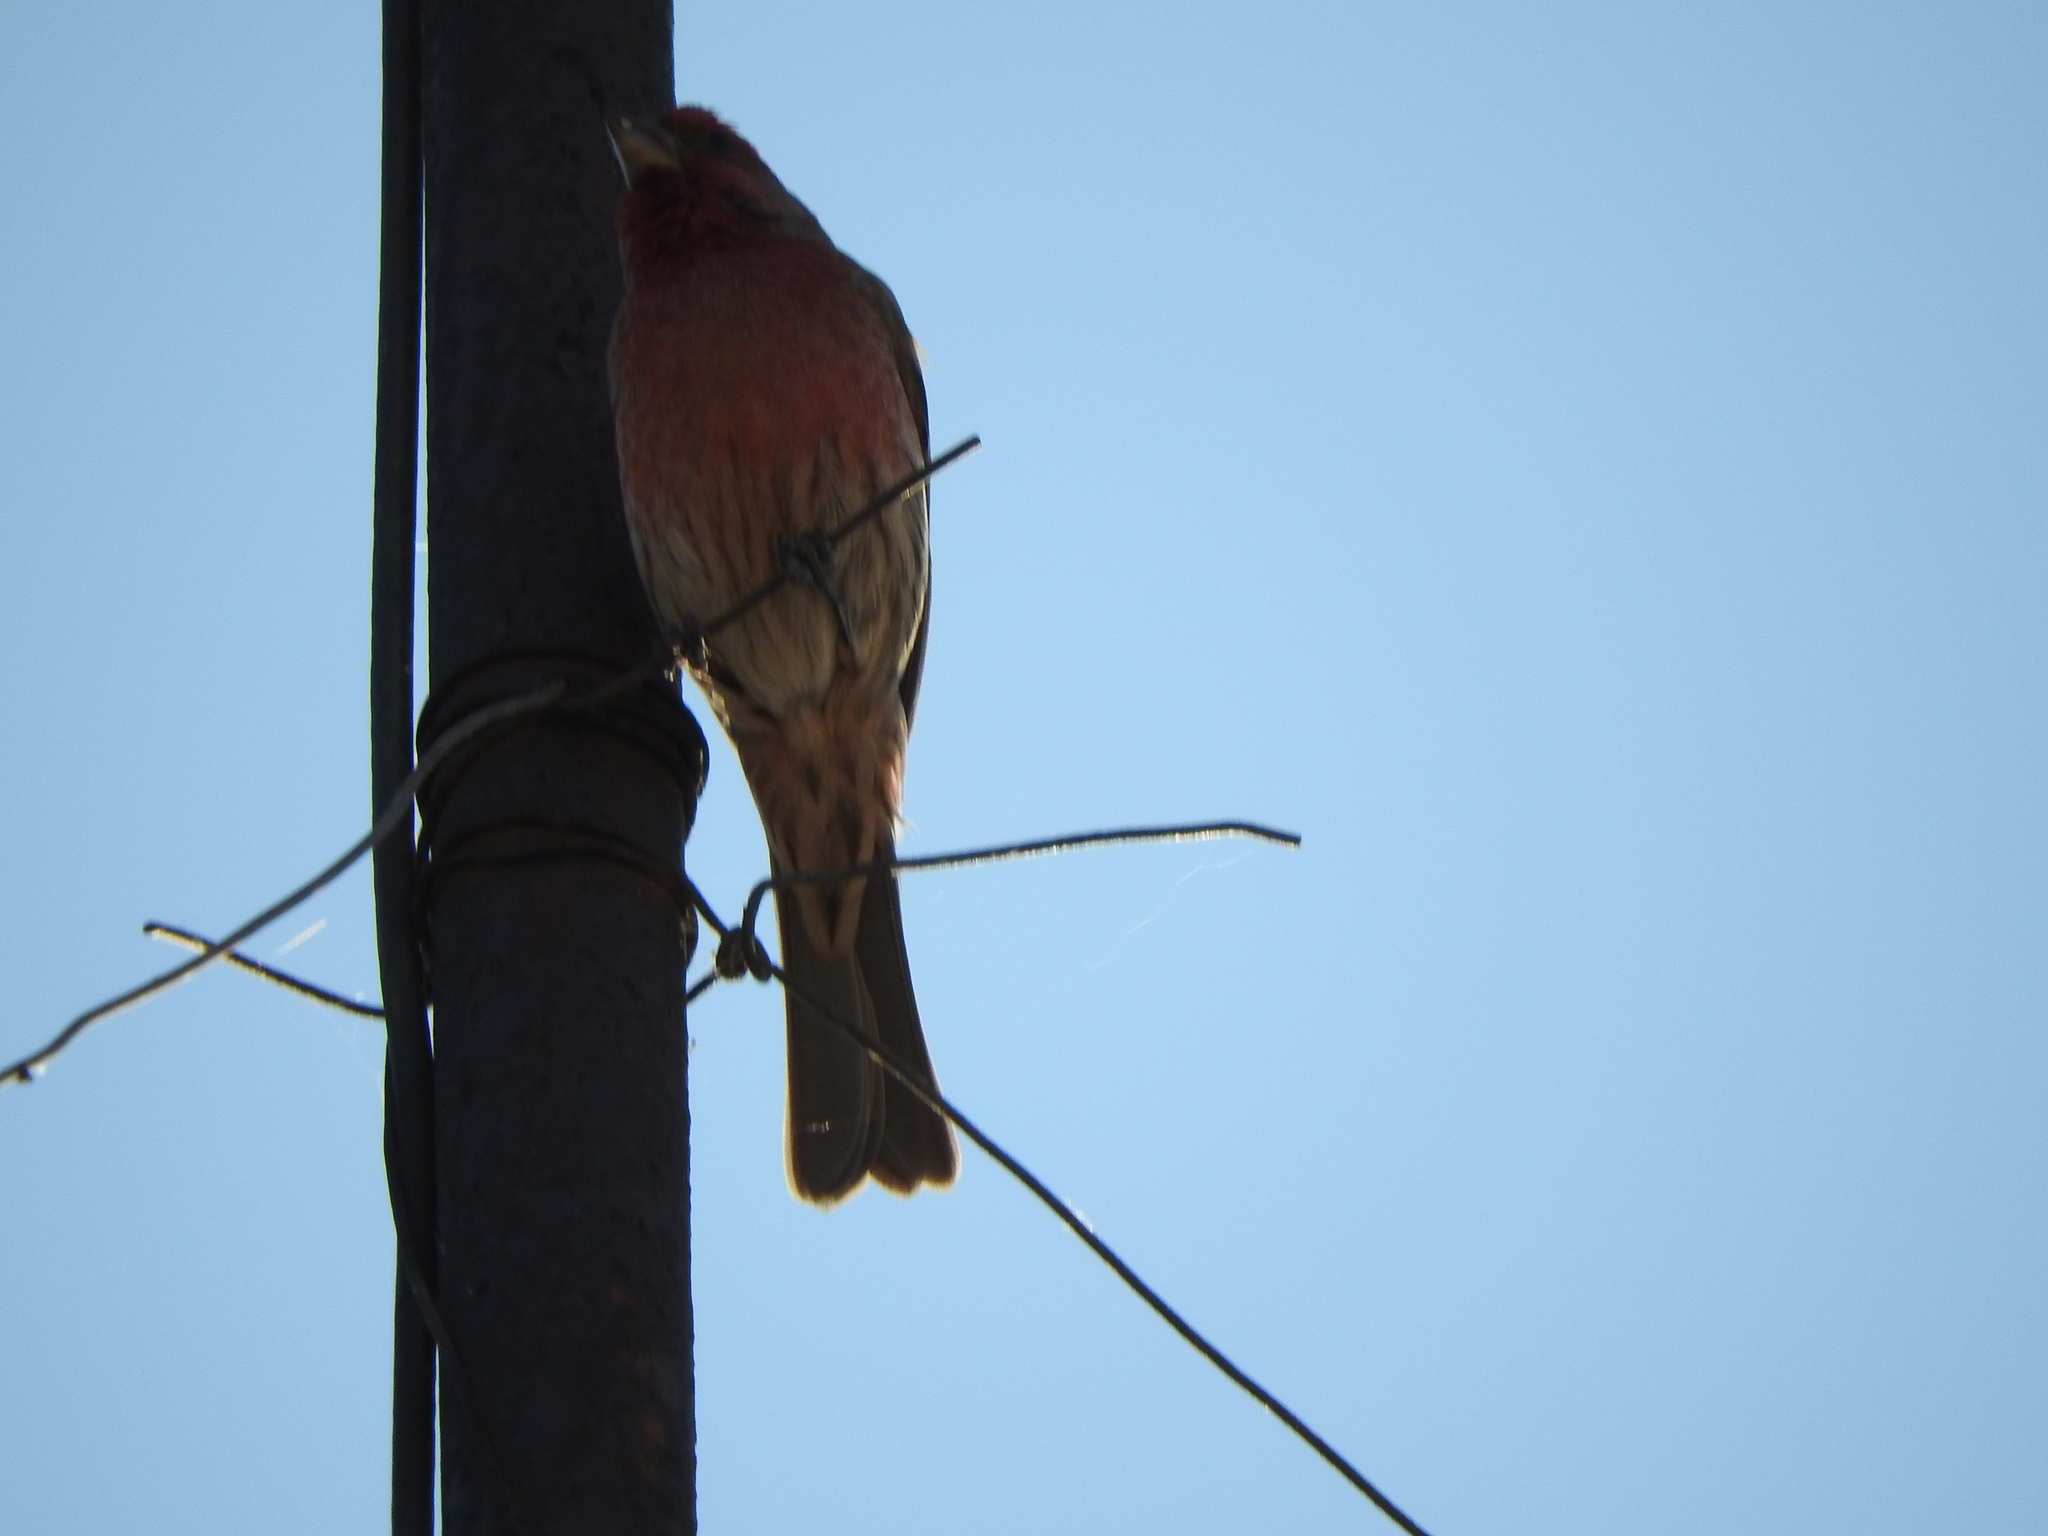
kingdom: Animalia
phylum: Chordata
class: Aves
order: Passeriformes
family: Fringillidae
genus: Haemorhous
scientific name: Haemorhous mexicanus
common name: House finch
